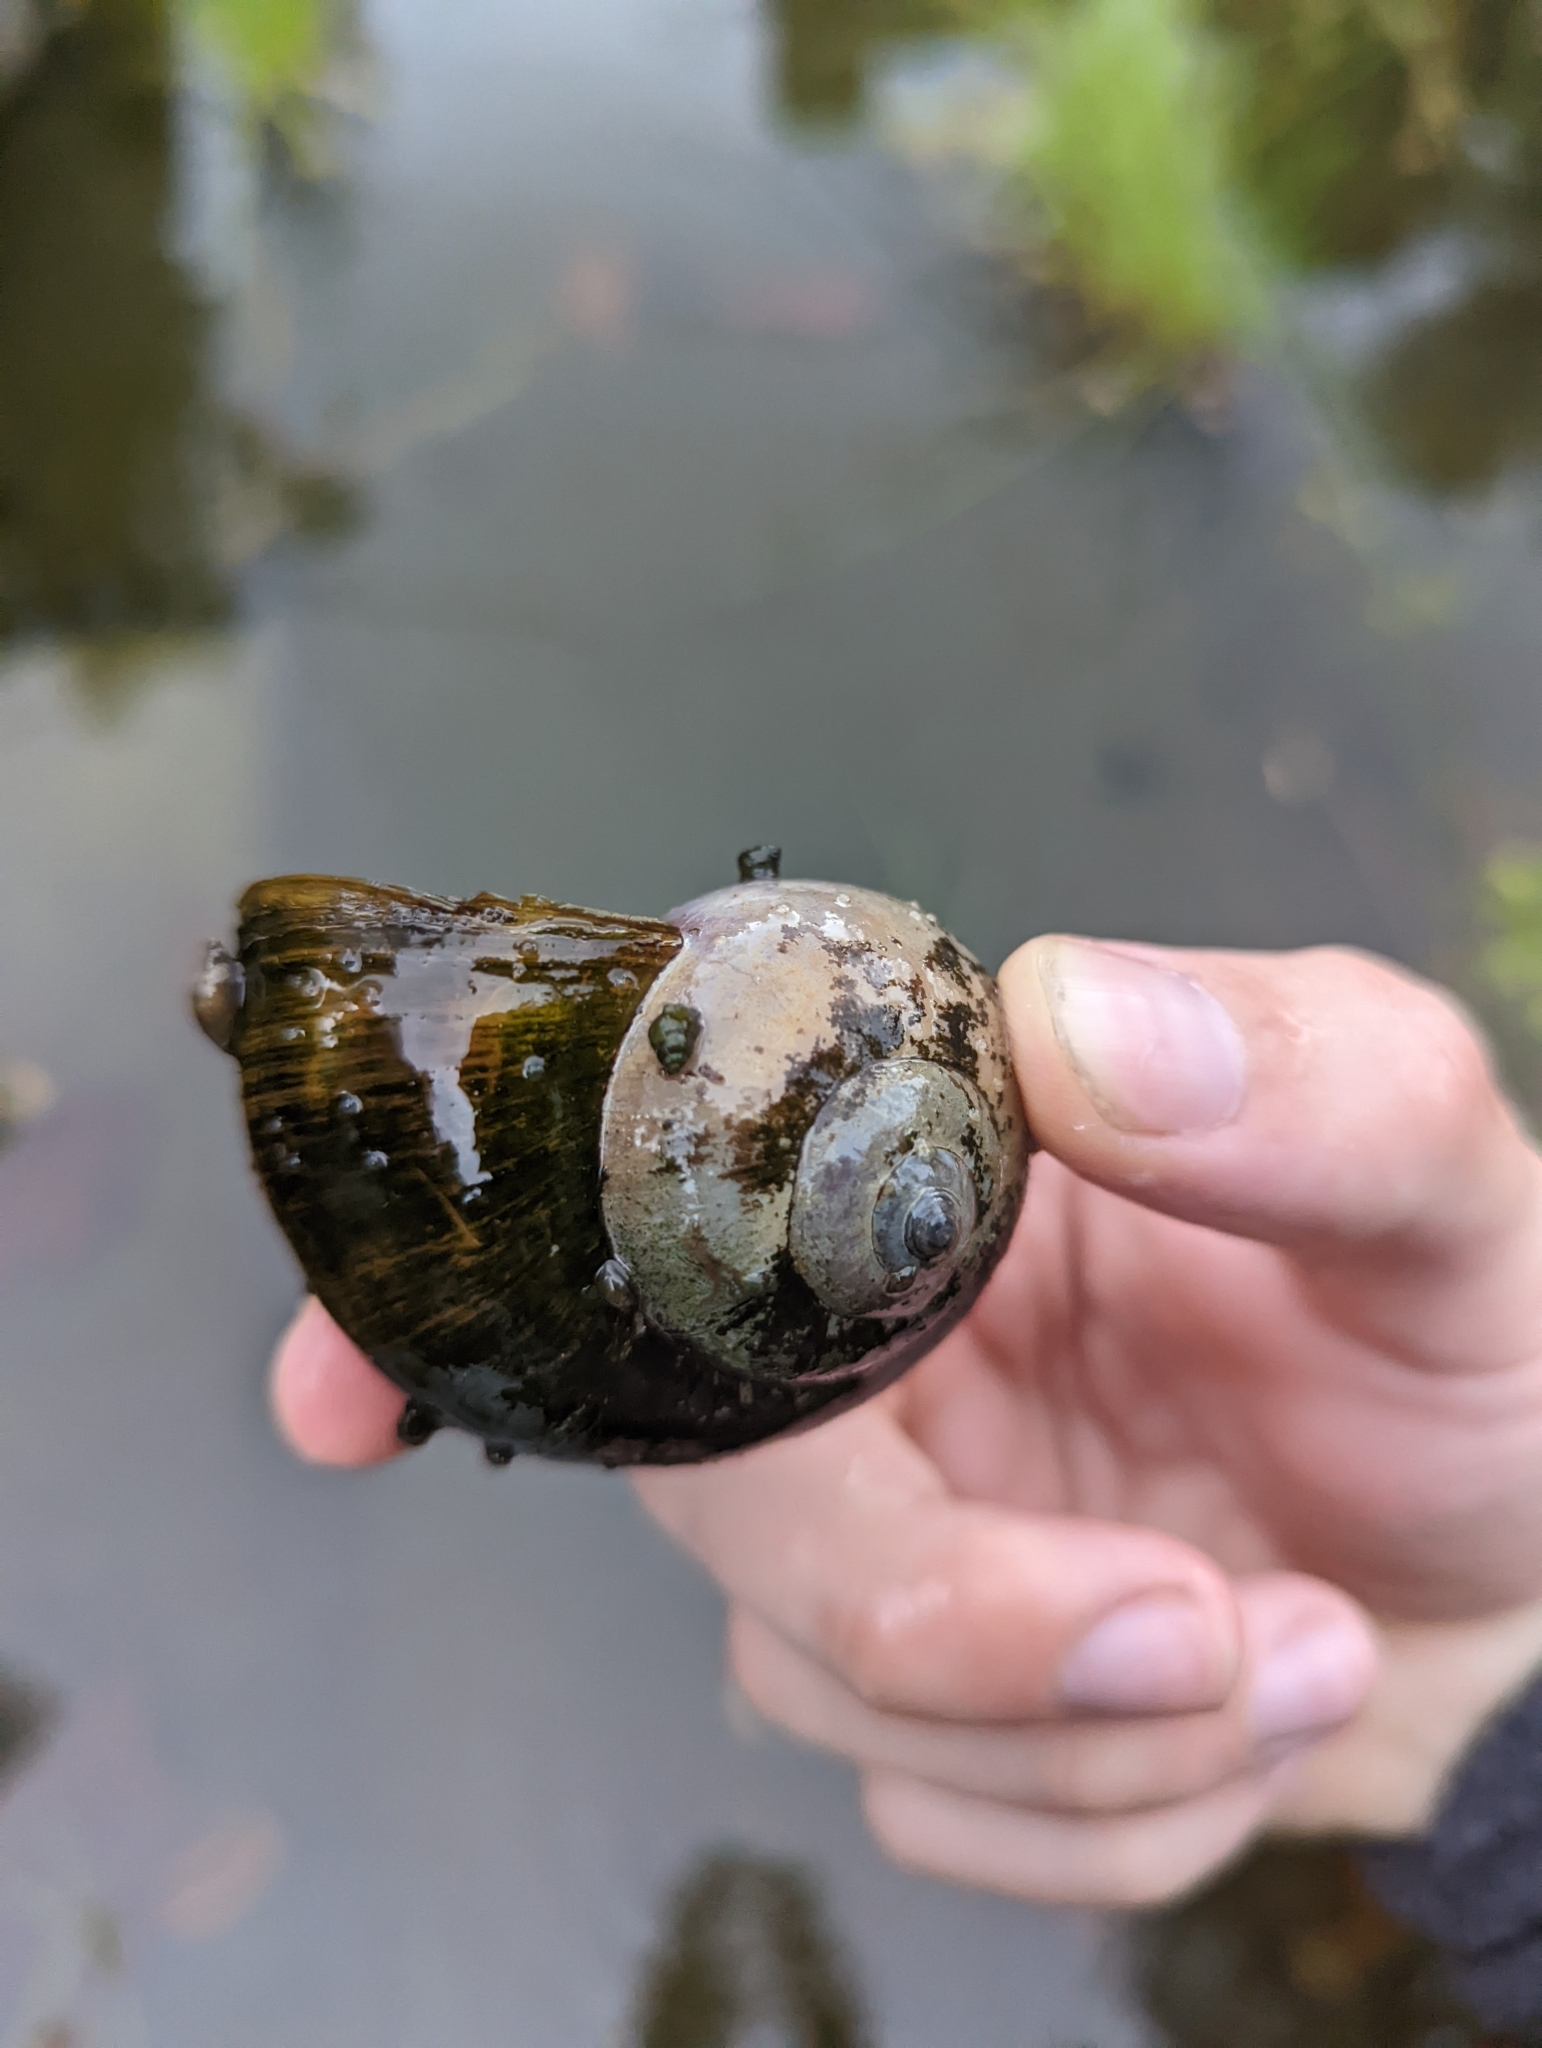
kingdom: Animalia
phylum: Mollusca
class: Gastropoda
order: Architaenioglossa
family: Ampullariidae
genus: Pomacea
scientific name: Pomacea maculata
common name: Giant applesnail
